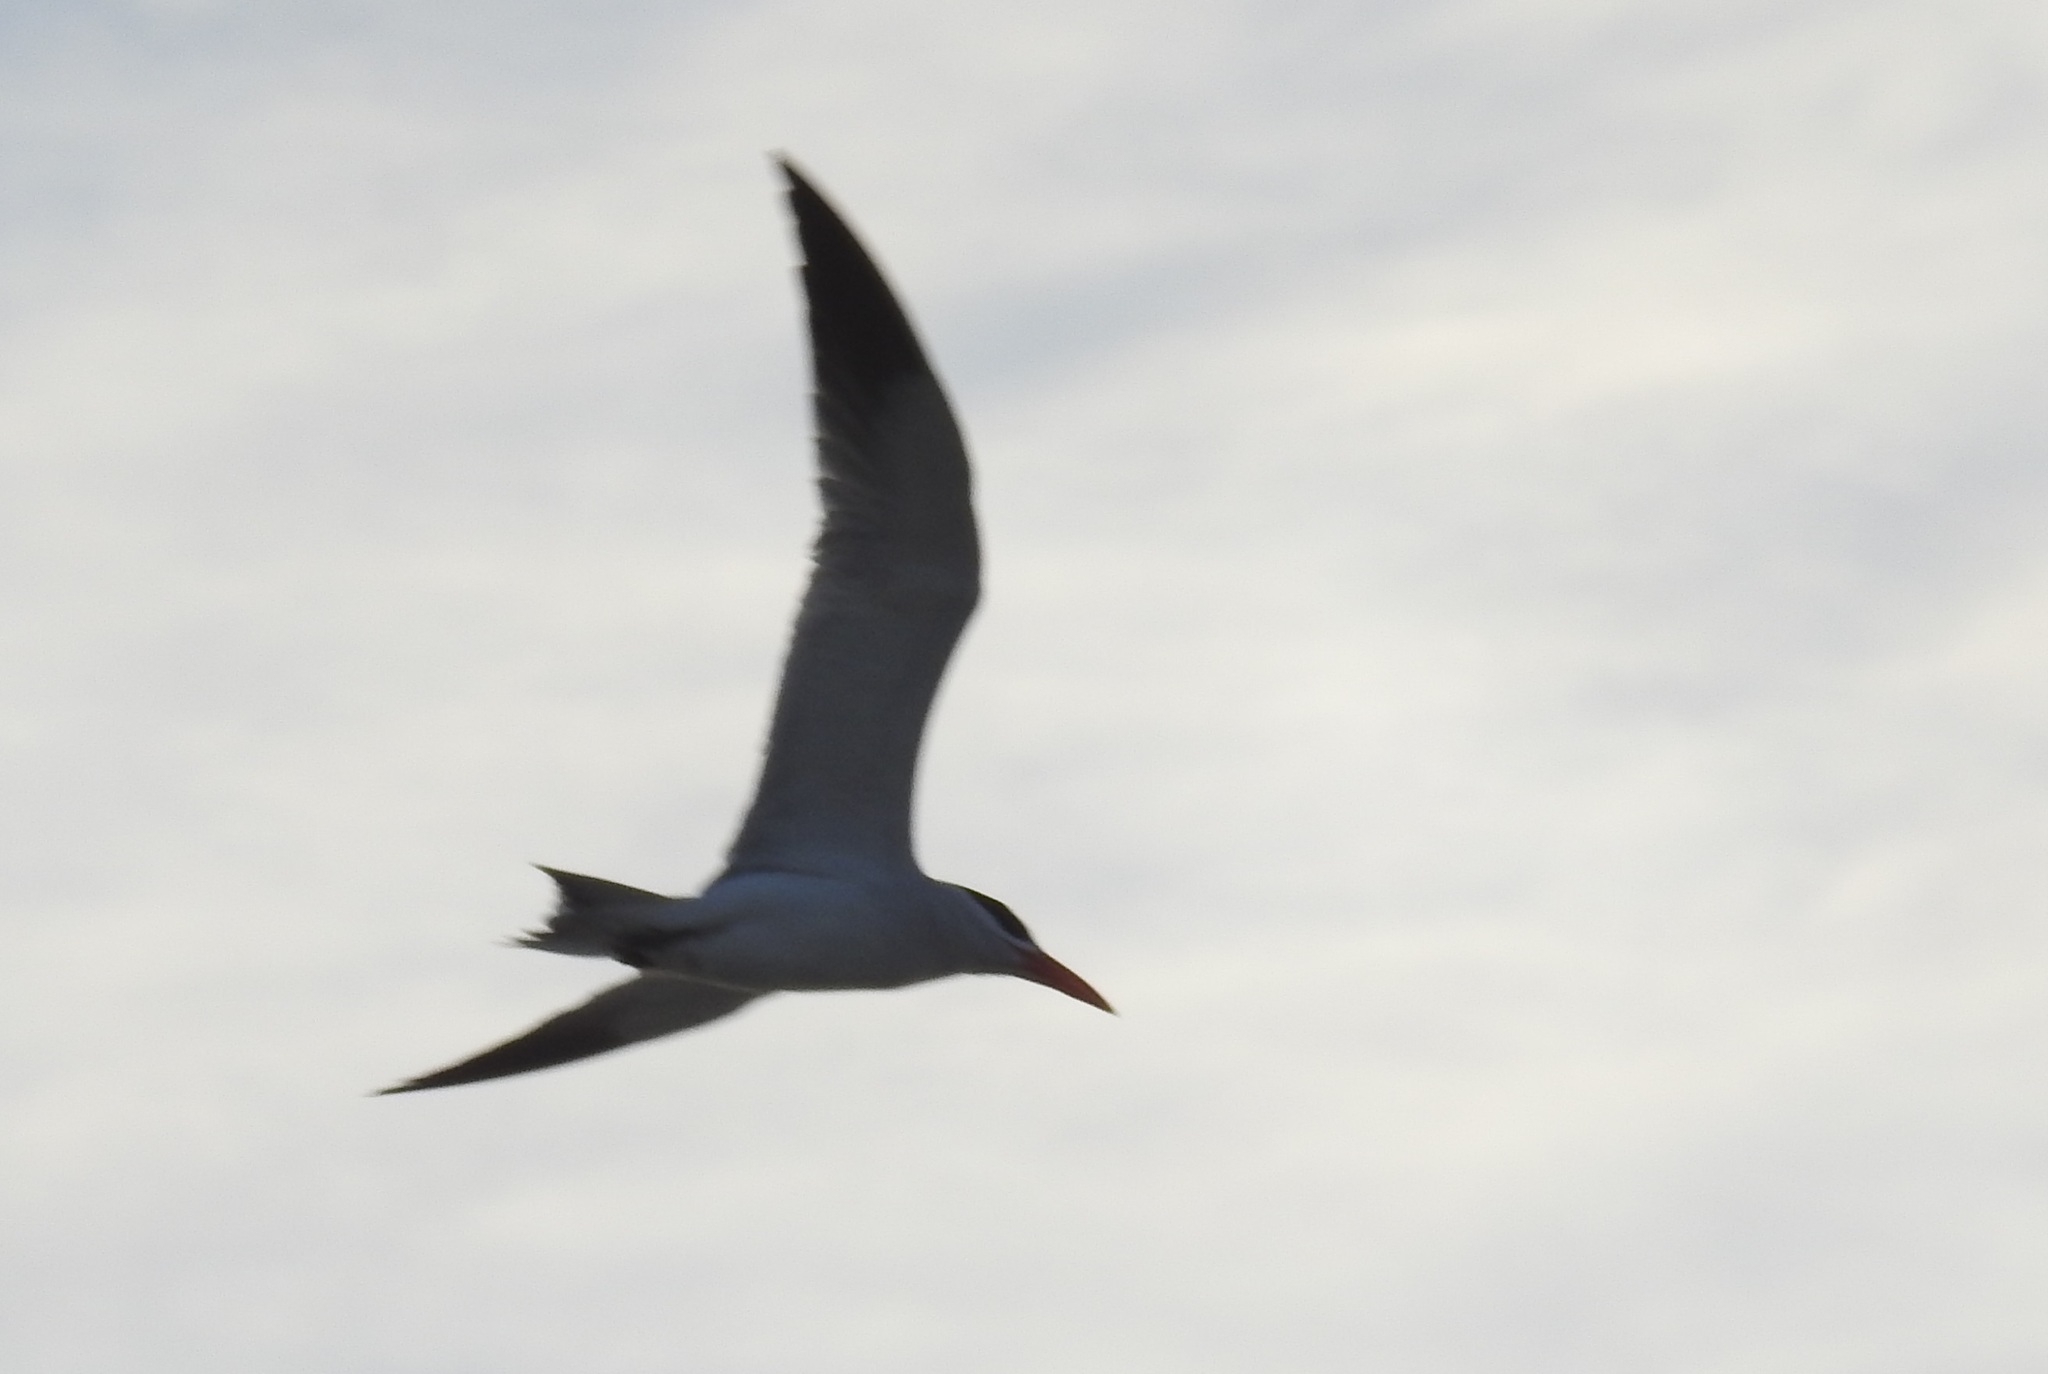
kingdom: Animalia
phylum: Chordata
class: Aves
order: Charadriiformes
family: Laridae
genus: Hydroprogne
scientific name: Hydroprogne caspia
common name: Caspian tern
